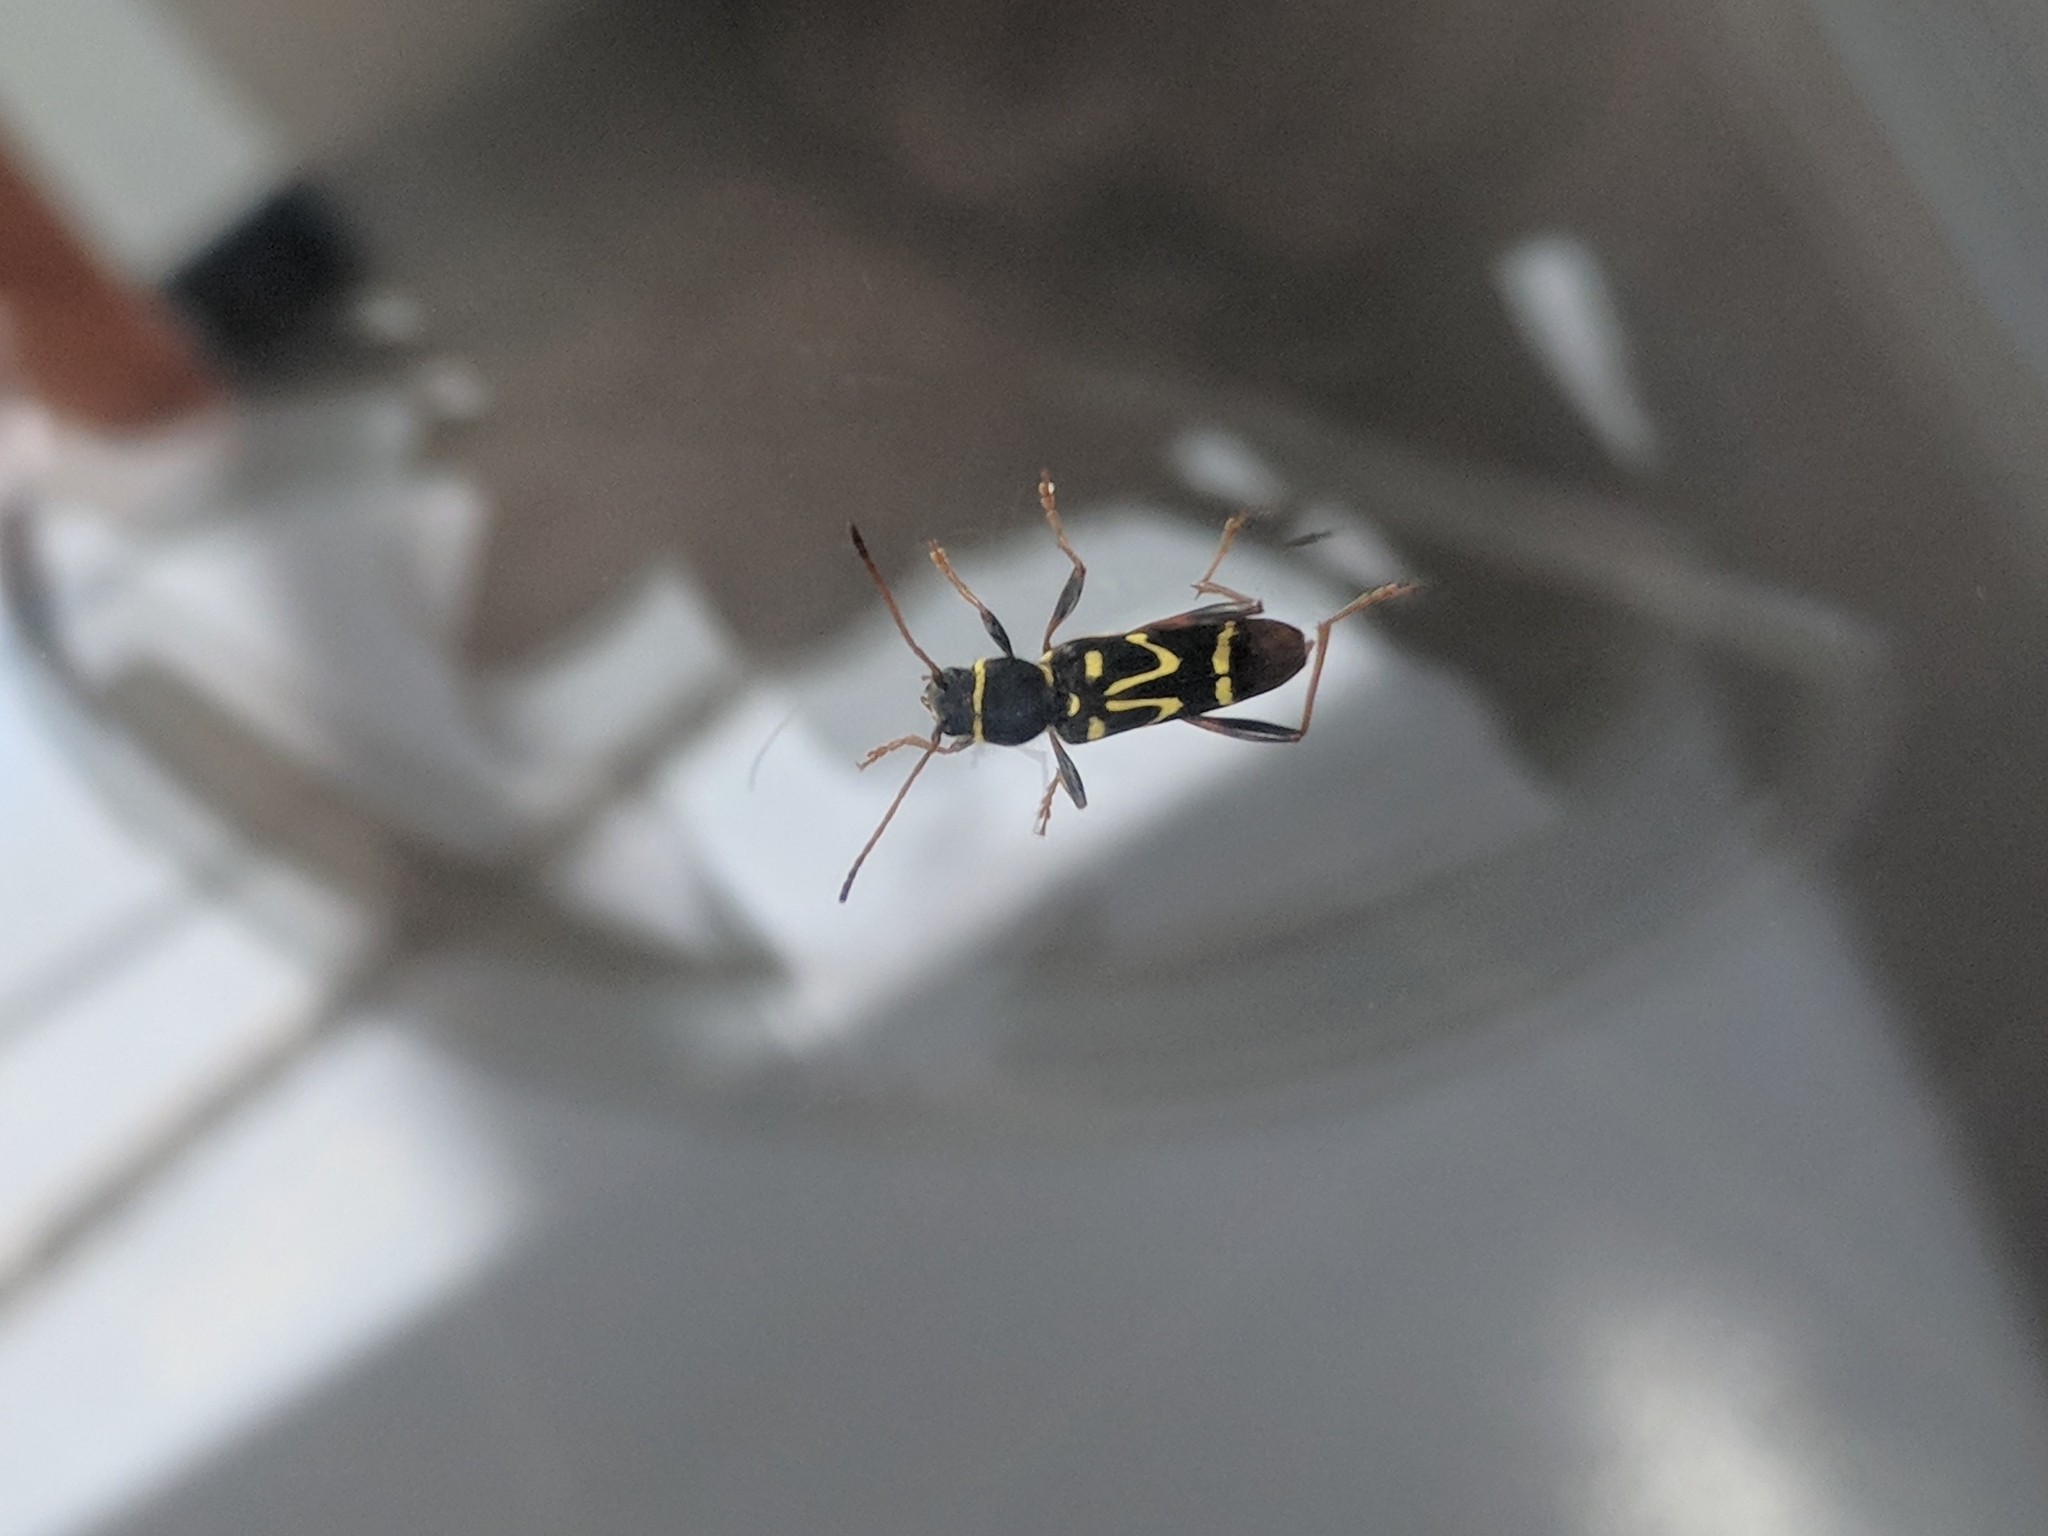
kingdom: Animalia
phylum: Arthropoda
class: Insecta
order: Coleoptera
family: Cerambycidae
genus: Clytus
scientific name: Clytus ruricola
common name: Round-necked longhorn beetle
